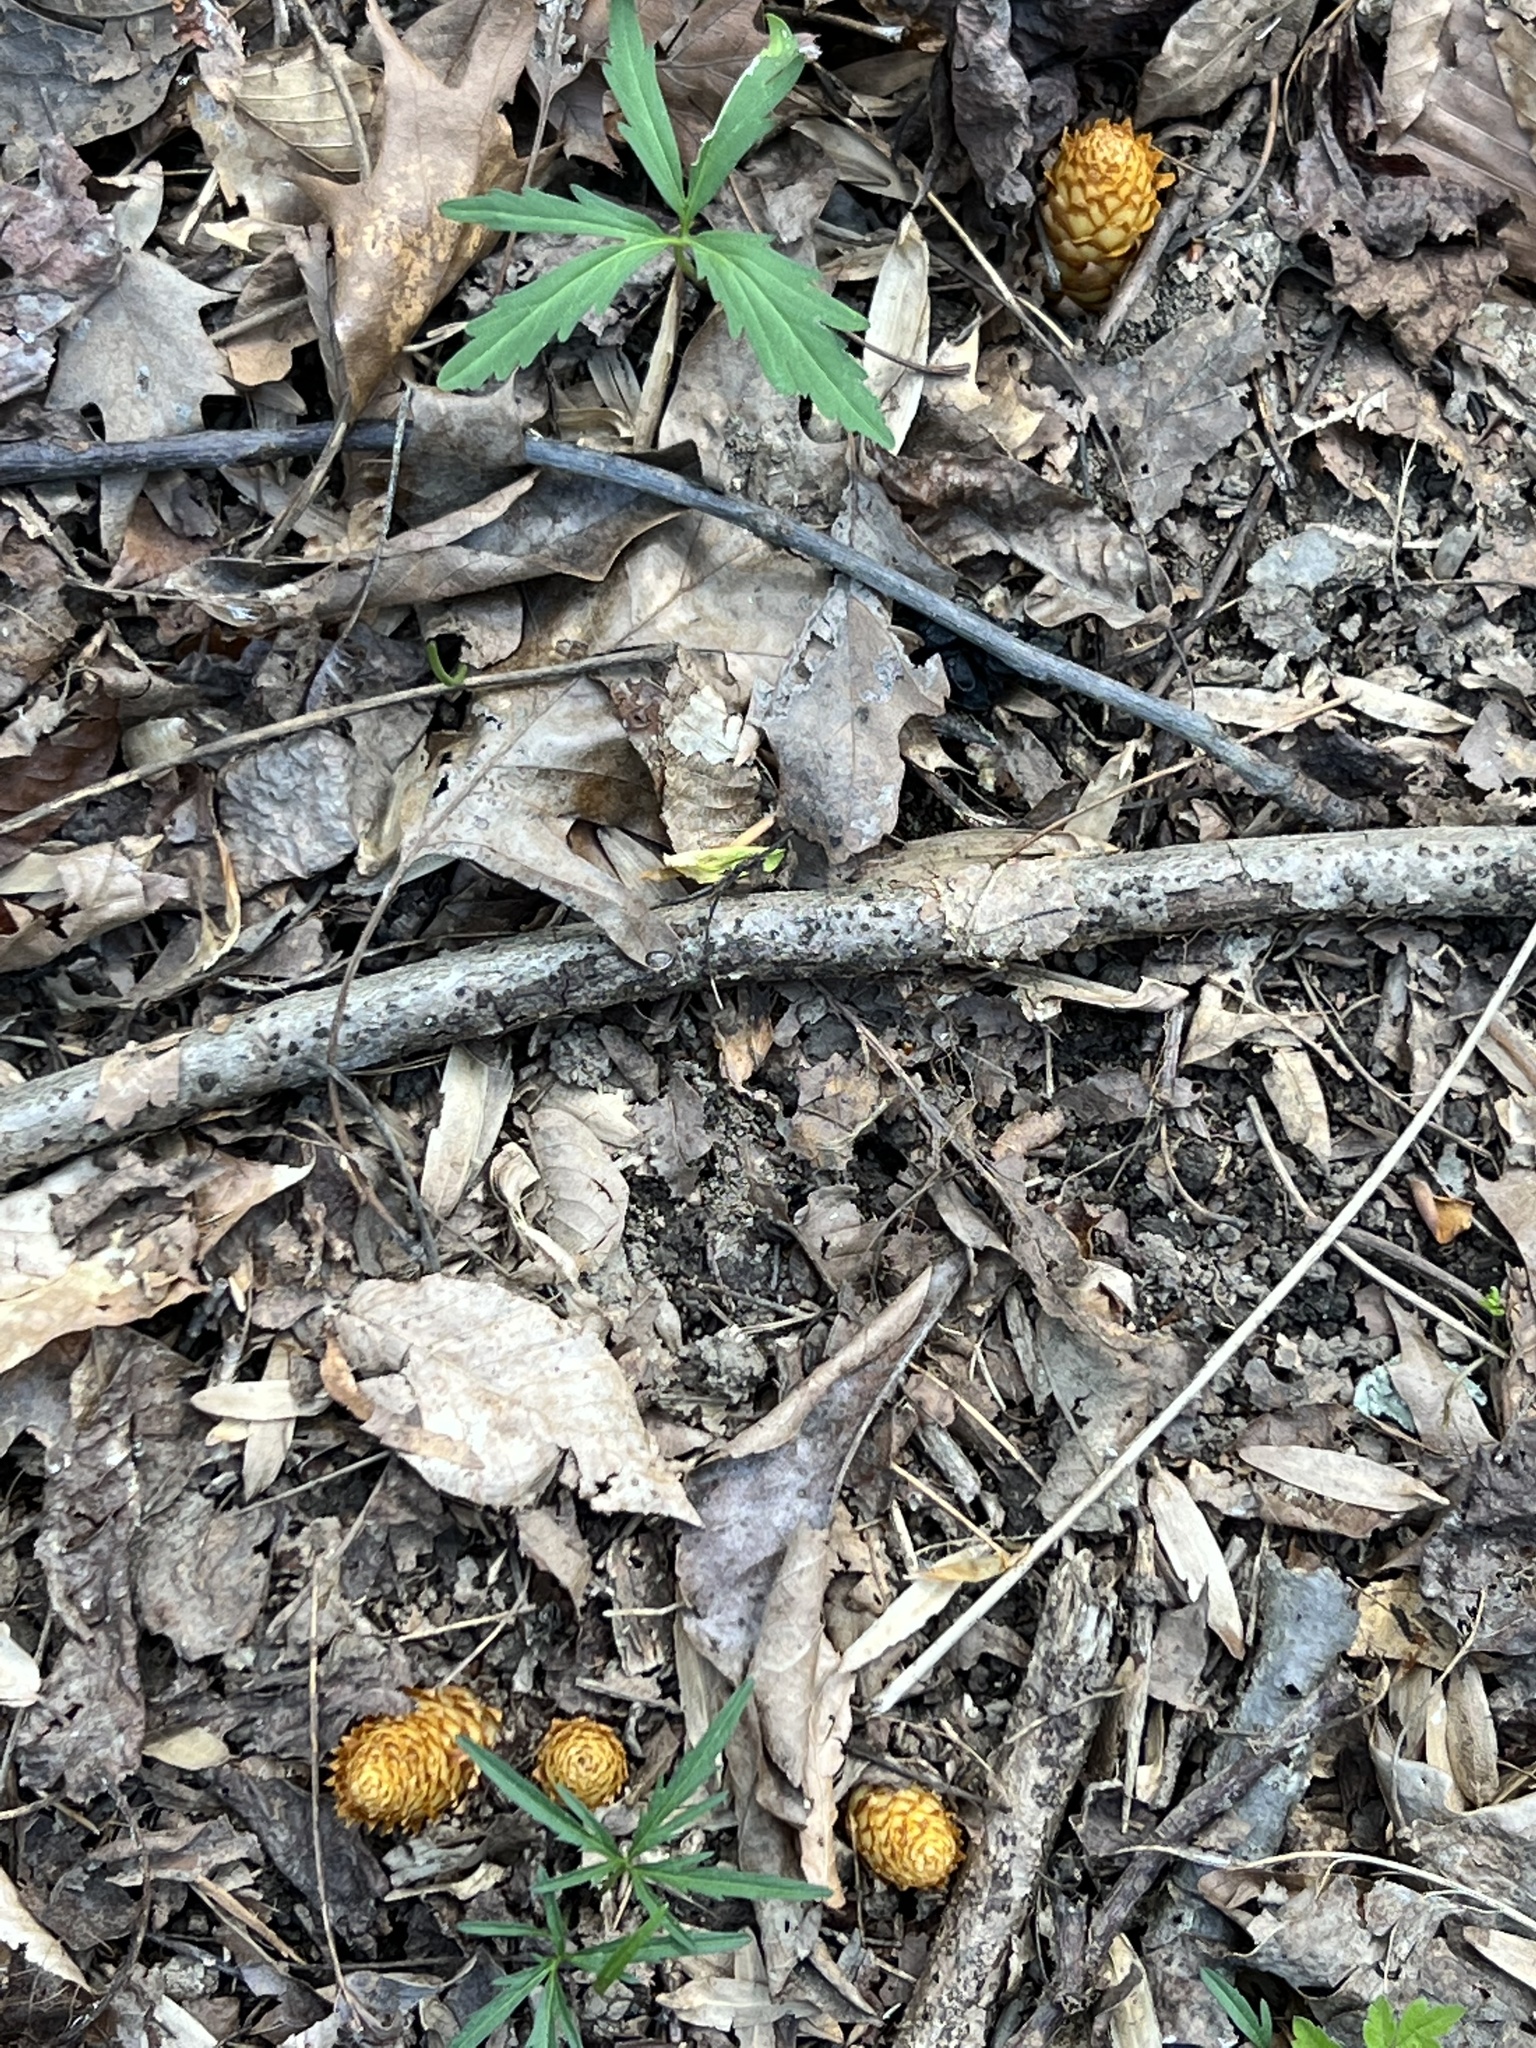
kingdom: Plantae
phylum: Tracheophyta
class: Magnoliopsida
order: Lamiales
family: Orobanchaceae
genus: Conopholis
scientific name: Conopholis americana
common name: American cancer-root
